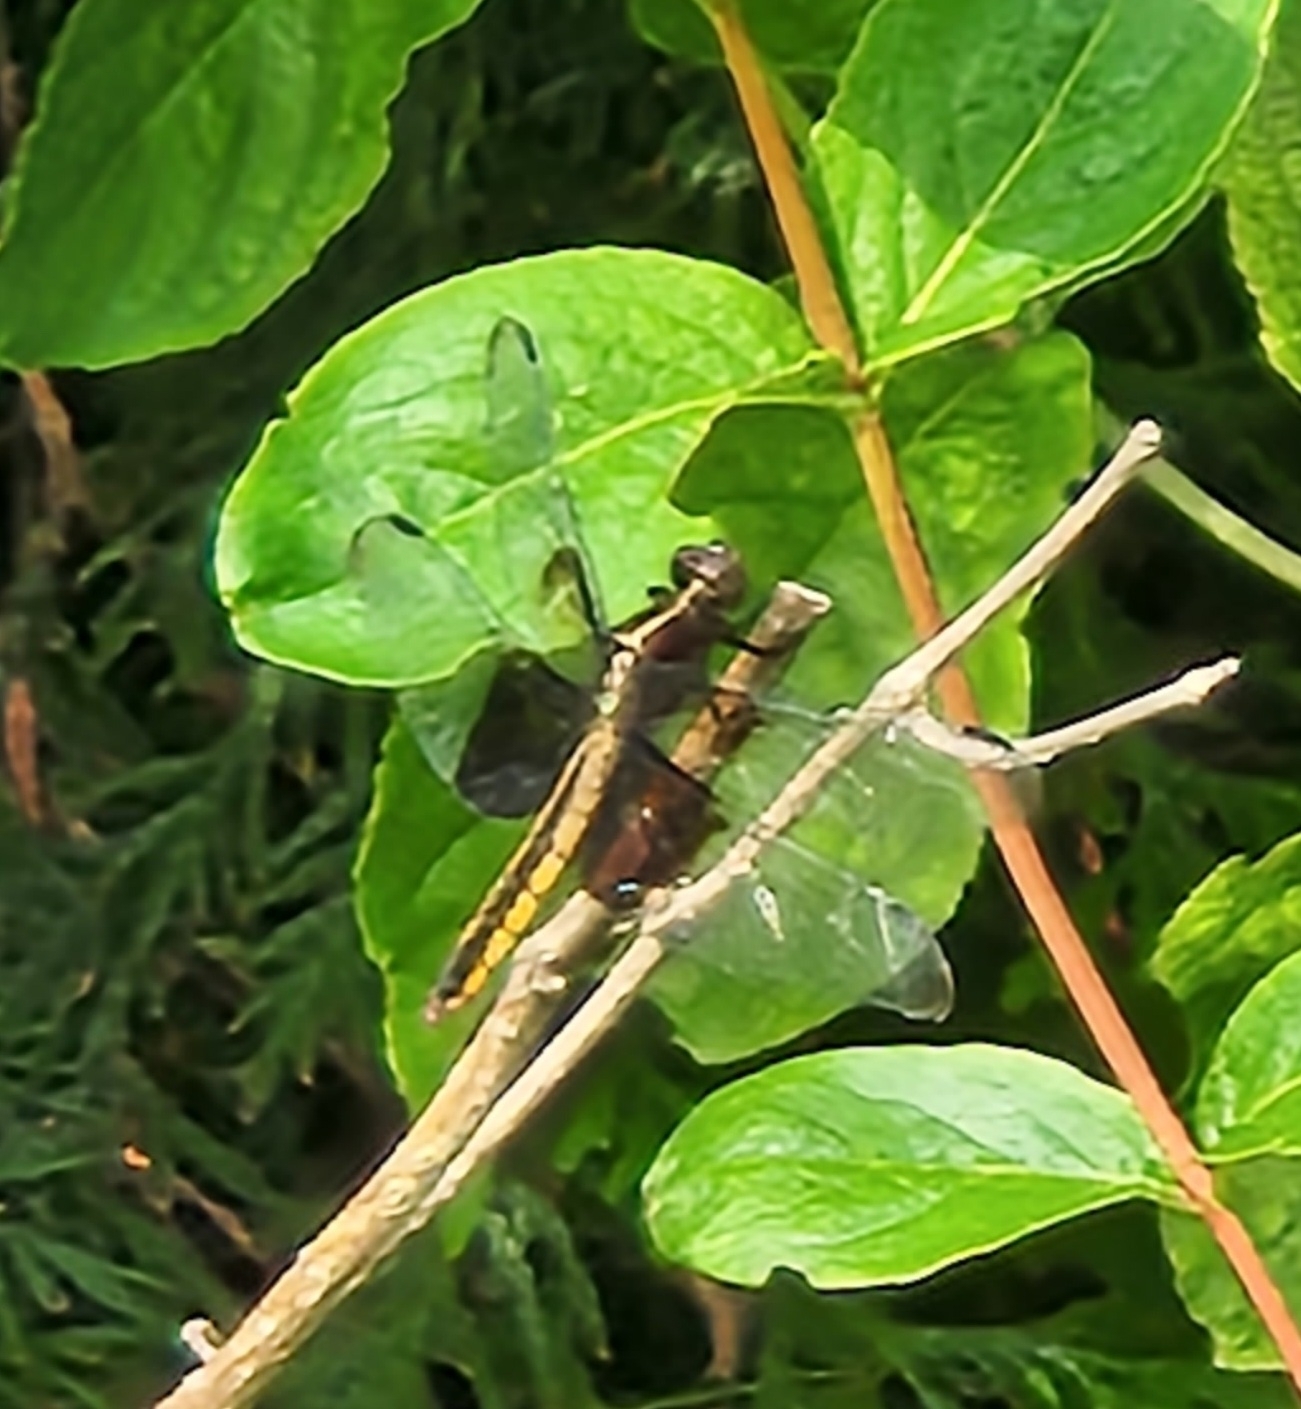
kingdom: Animalia
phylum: Arthropoda
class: Insecta
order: Odonata
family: Libellulidae
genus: Libellula
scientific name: Libellula luctuosa
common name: Widow skimmer
